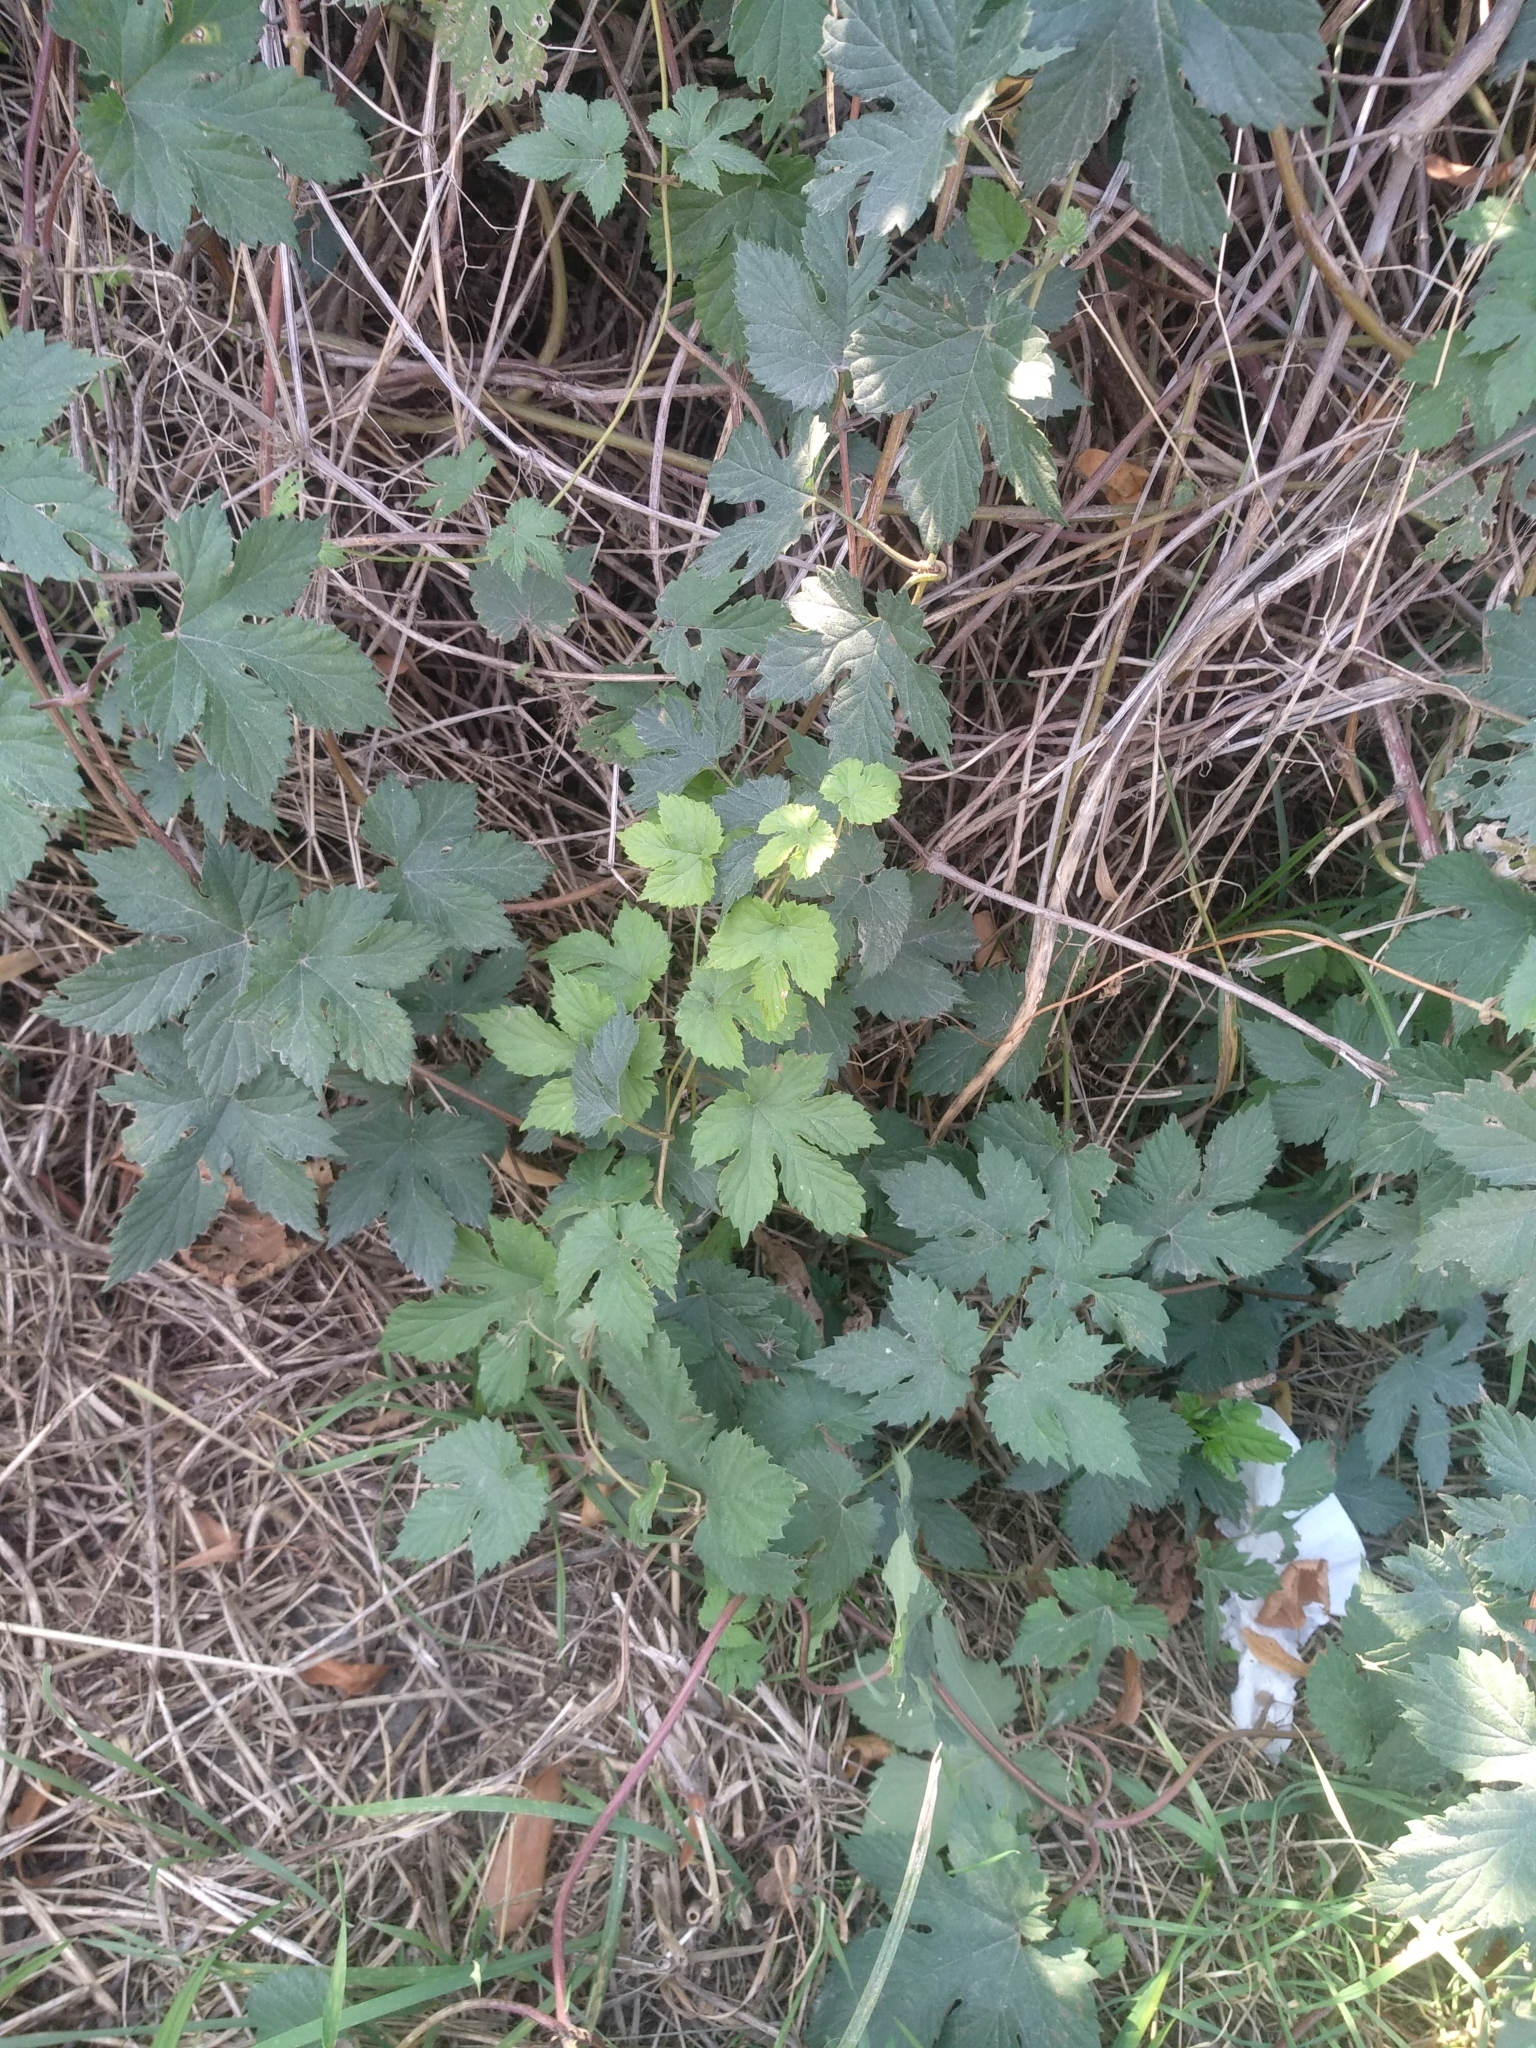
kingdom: Plantae
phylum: Tracheophyta
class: Magnoliopsida
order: Rosales
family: Cannabaceae
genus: Humulus
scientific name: Humulus lupulus
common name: Hop
